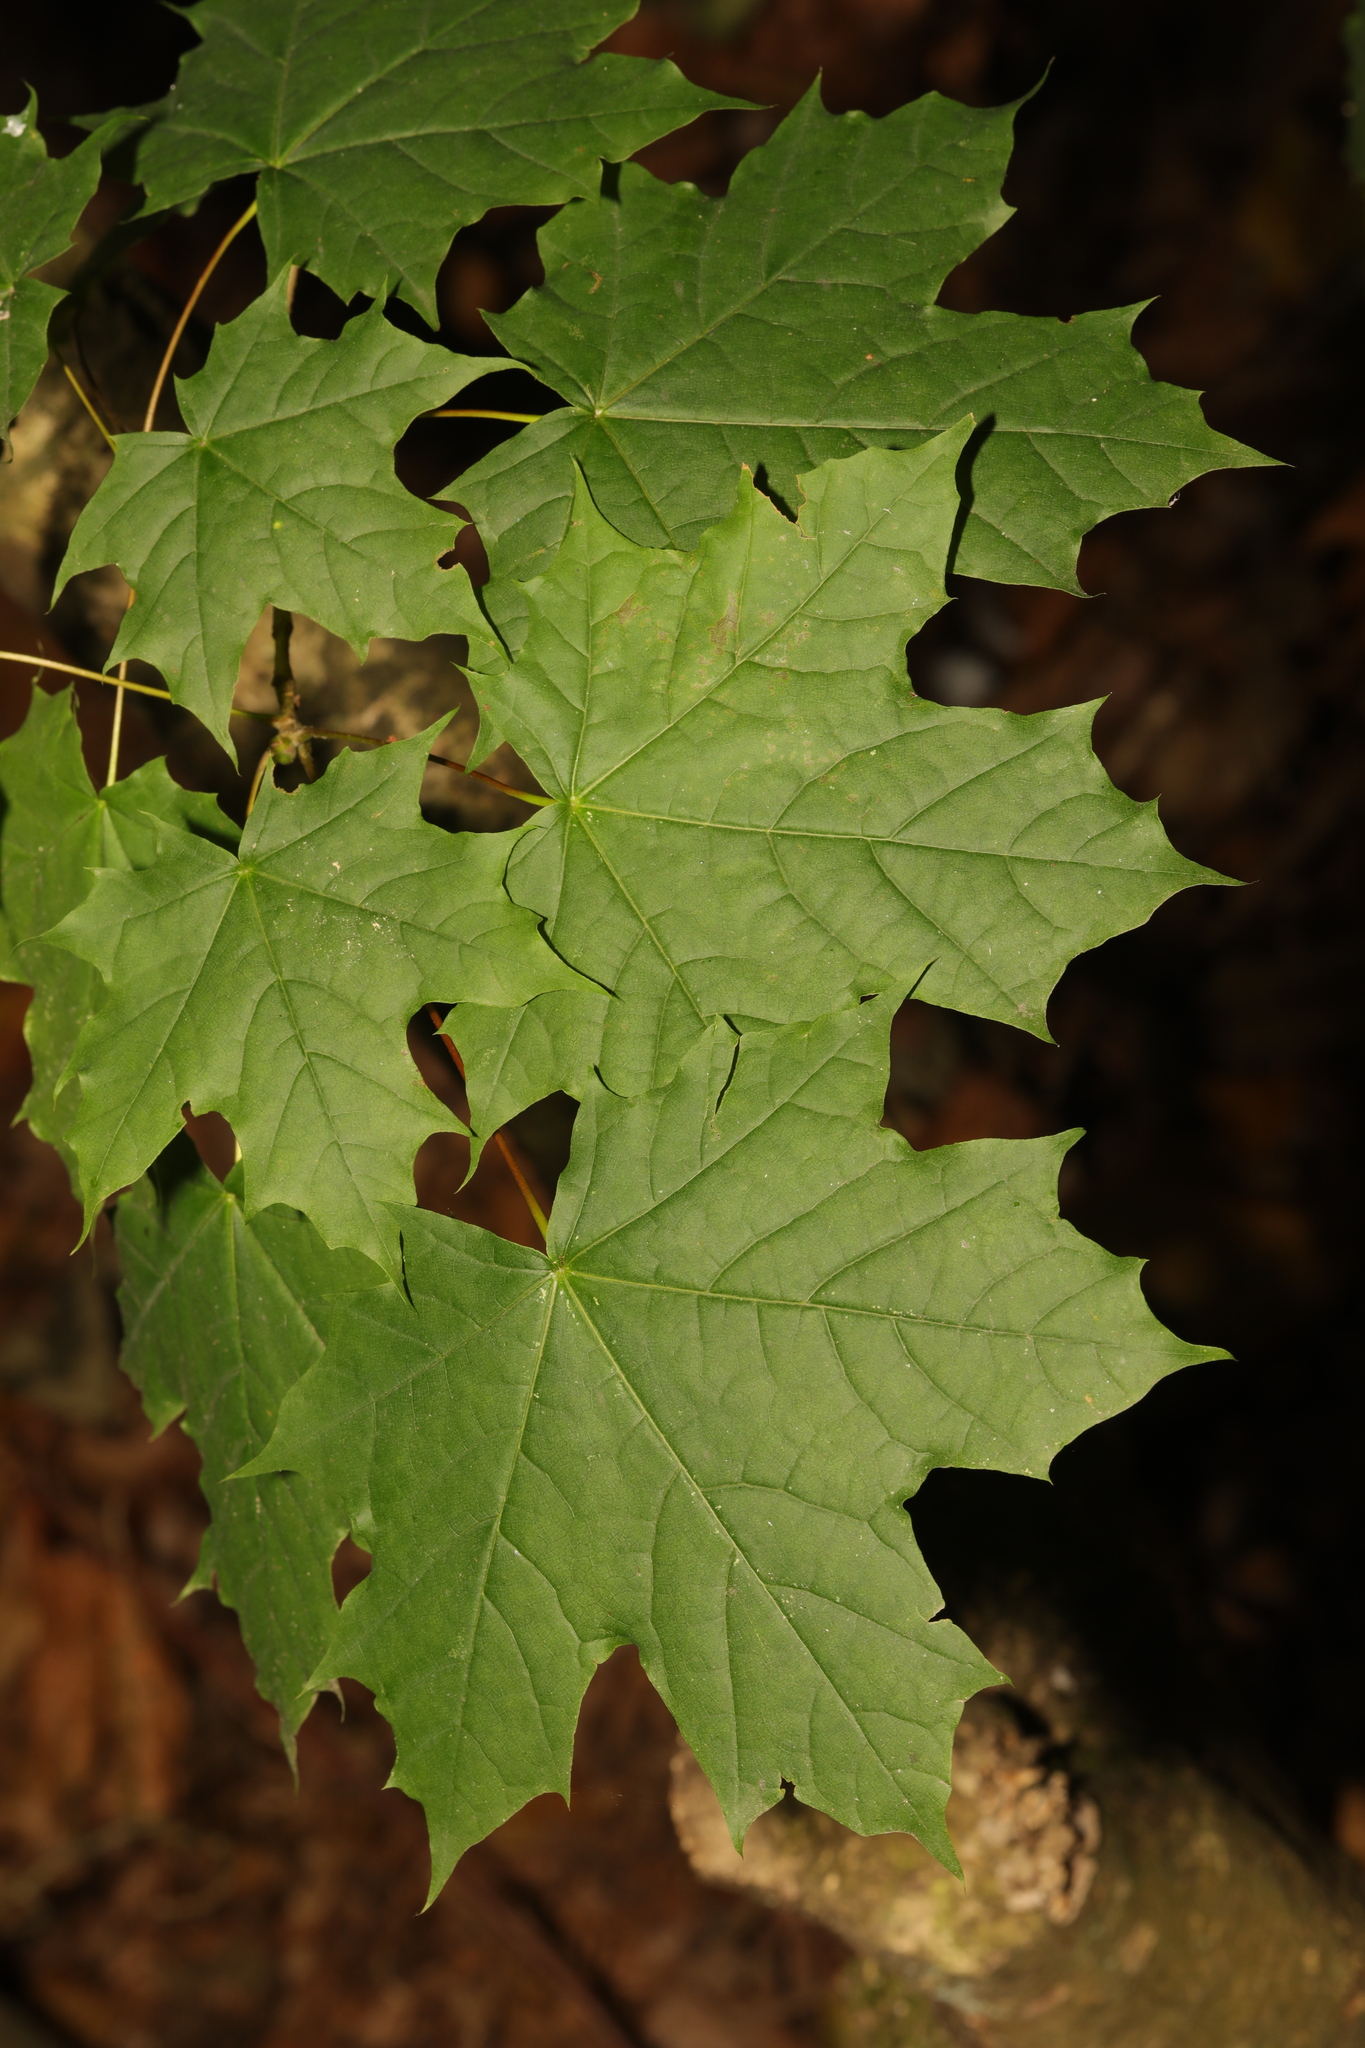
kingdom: Plantae
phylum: Tracheophyta
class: Magnoliopsida
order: Sapindales
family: Sapindaceae
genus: Acer
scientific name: Acer platanoides
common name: Norway maple
